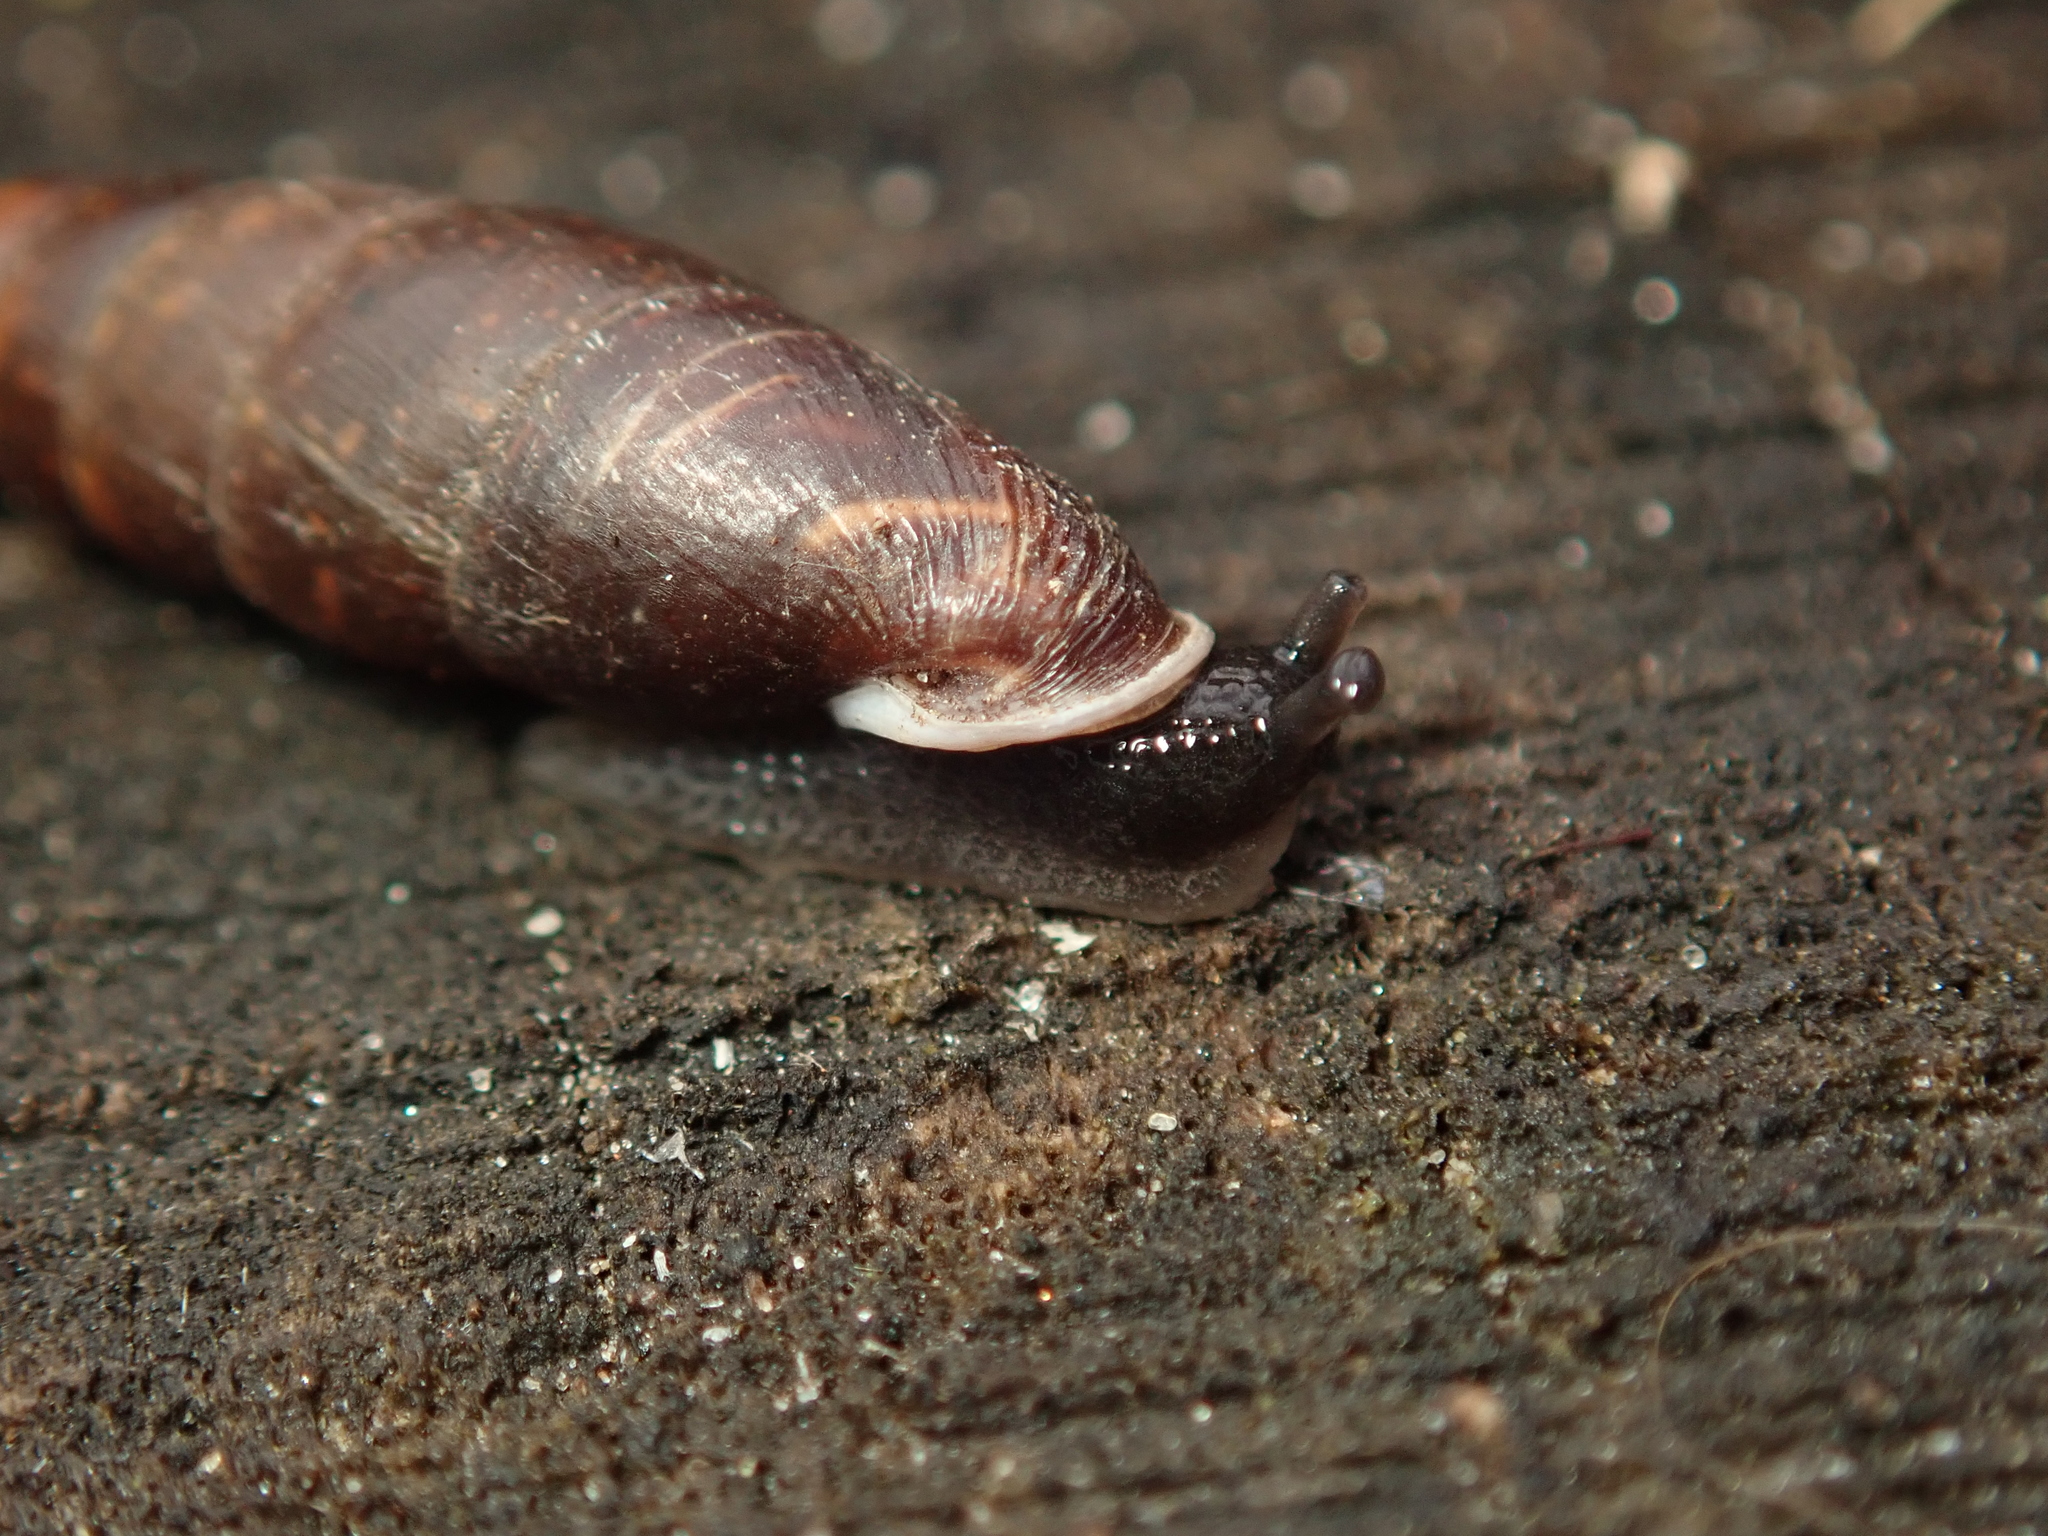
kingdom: Animalia
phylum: Mollusca
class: Gastropoda
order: Stylommatophora
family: Clausiliidae
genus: Cochlodina
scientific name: Cochlodina laminata
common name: Plaited door snail
